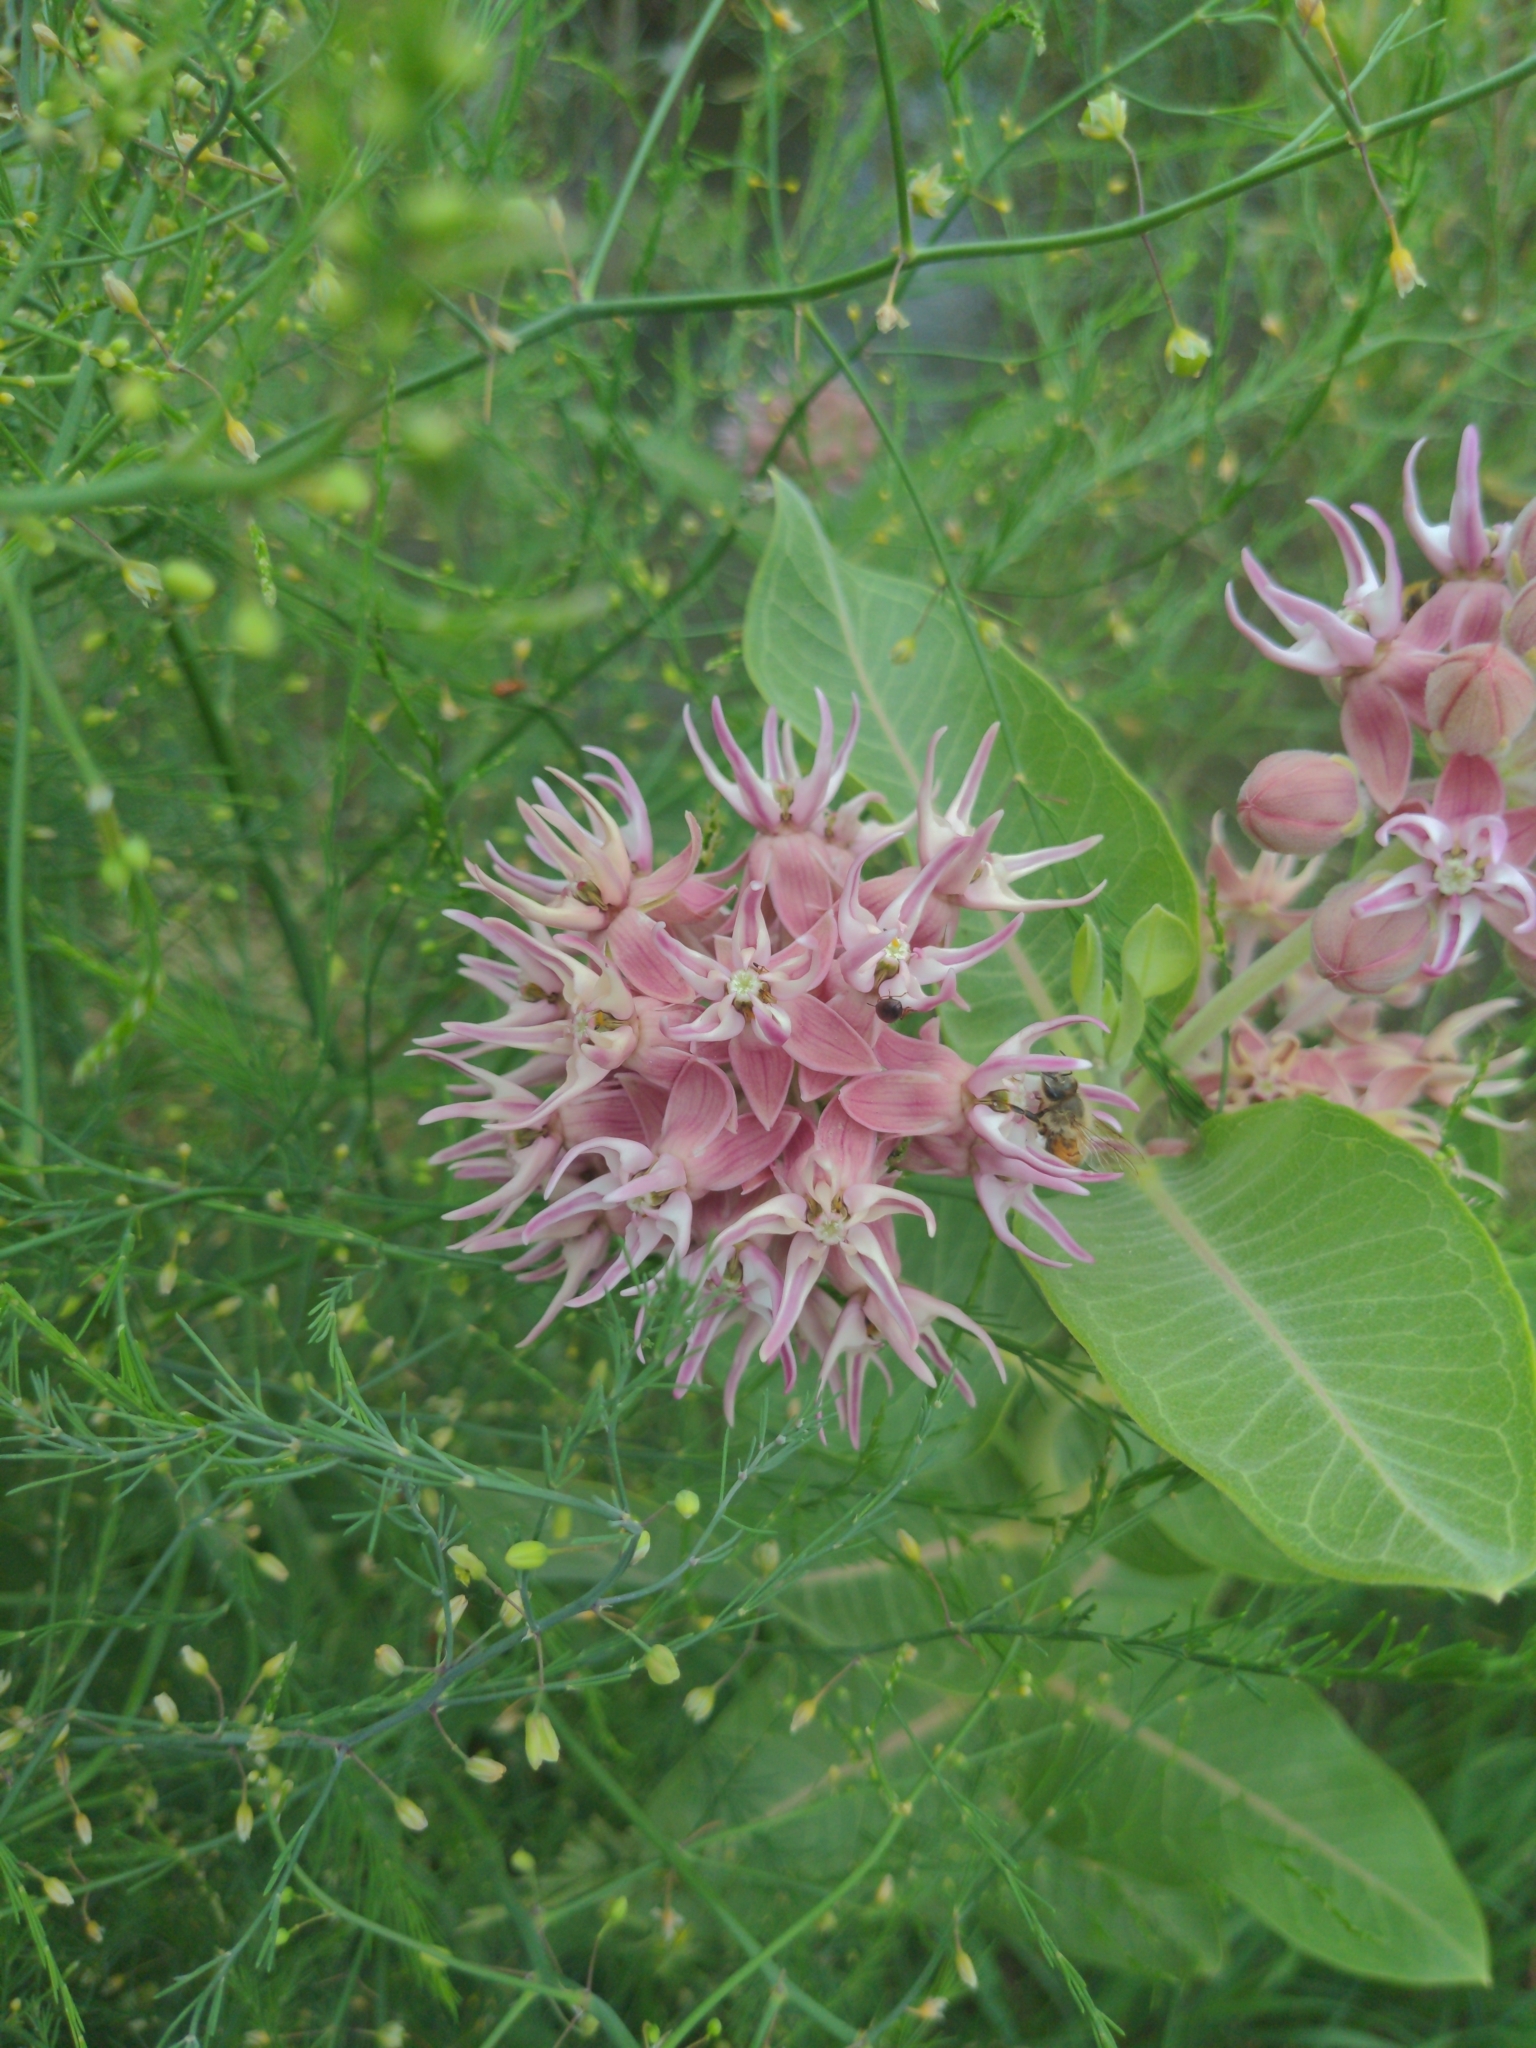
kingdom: Plantae
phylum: Tracheophyta
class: Magnoliopsida
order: Gentianales
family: Apocynaceae
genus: Asclepias
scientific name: Asclepias speciosa
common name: Showy milkweed
